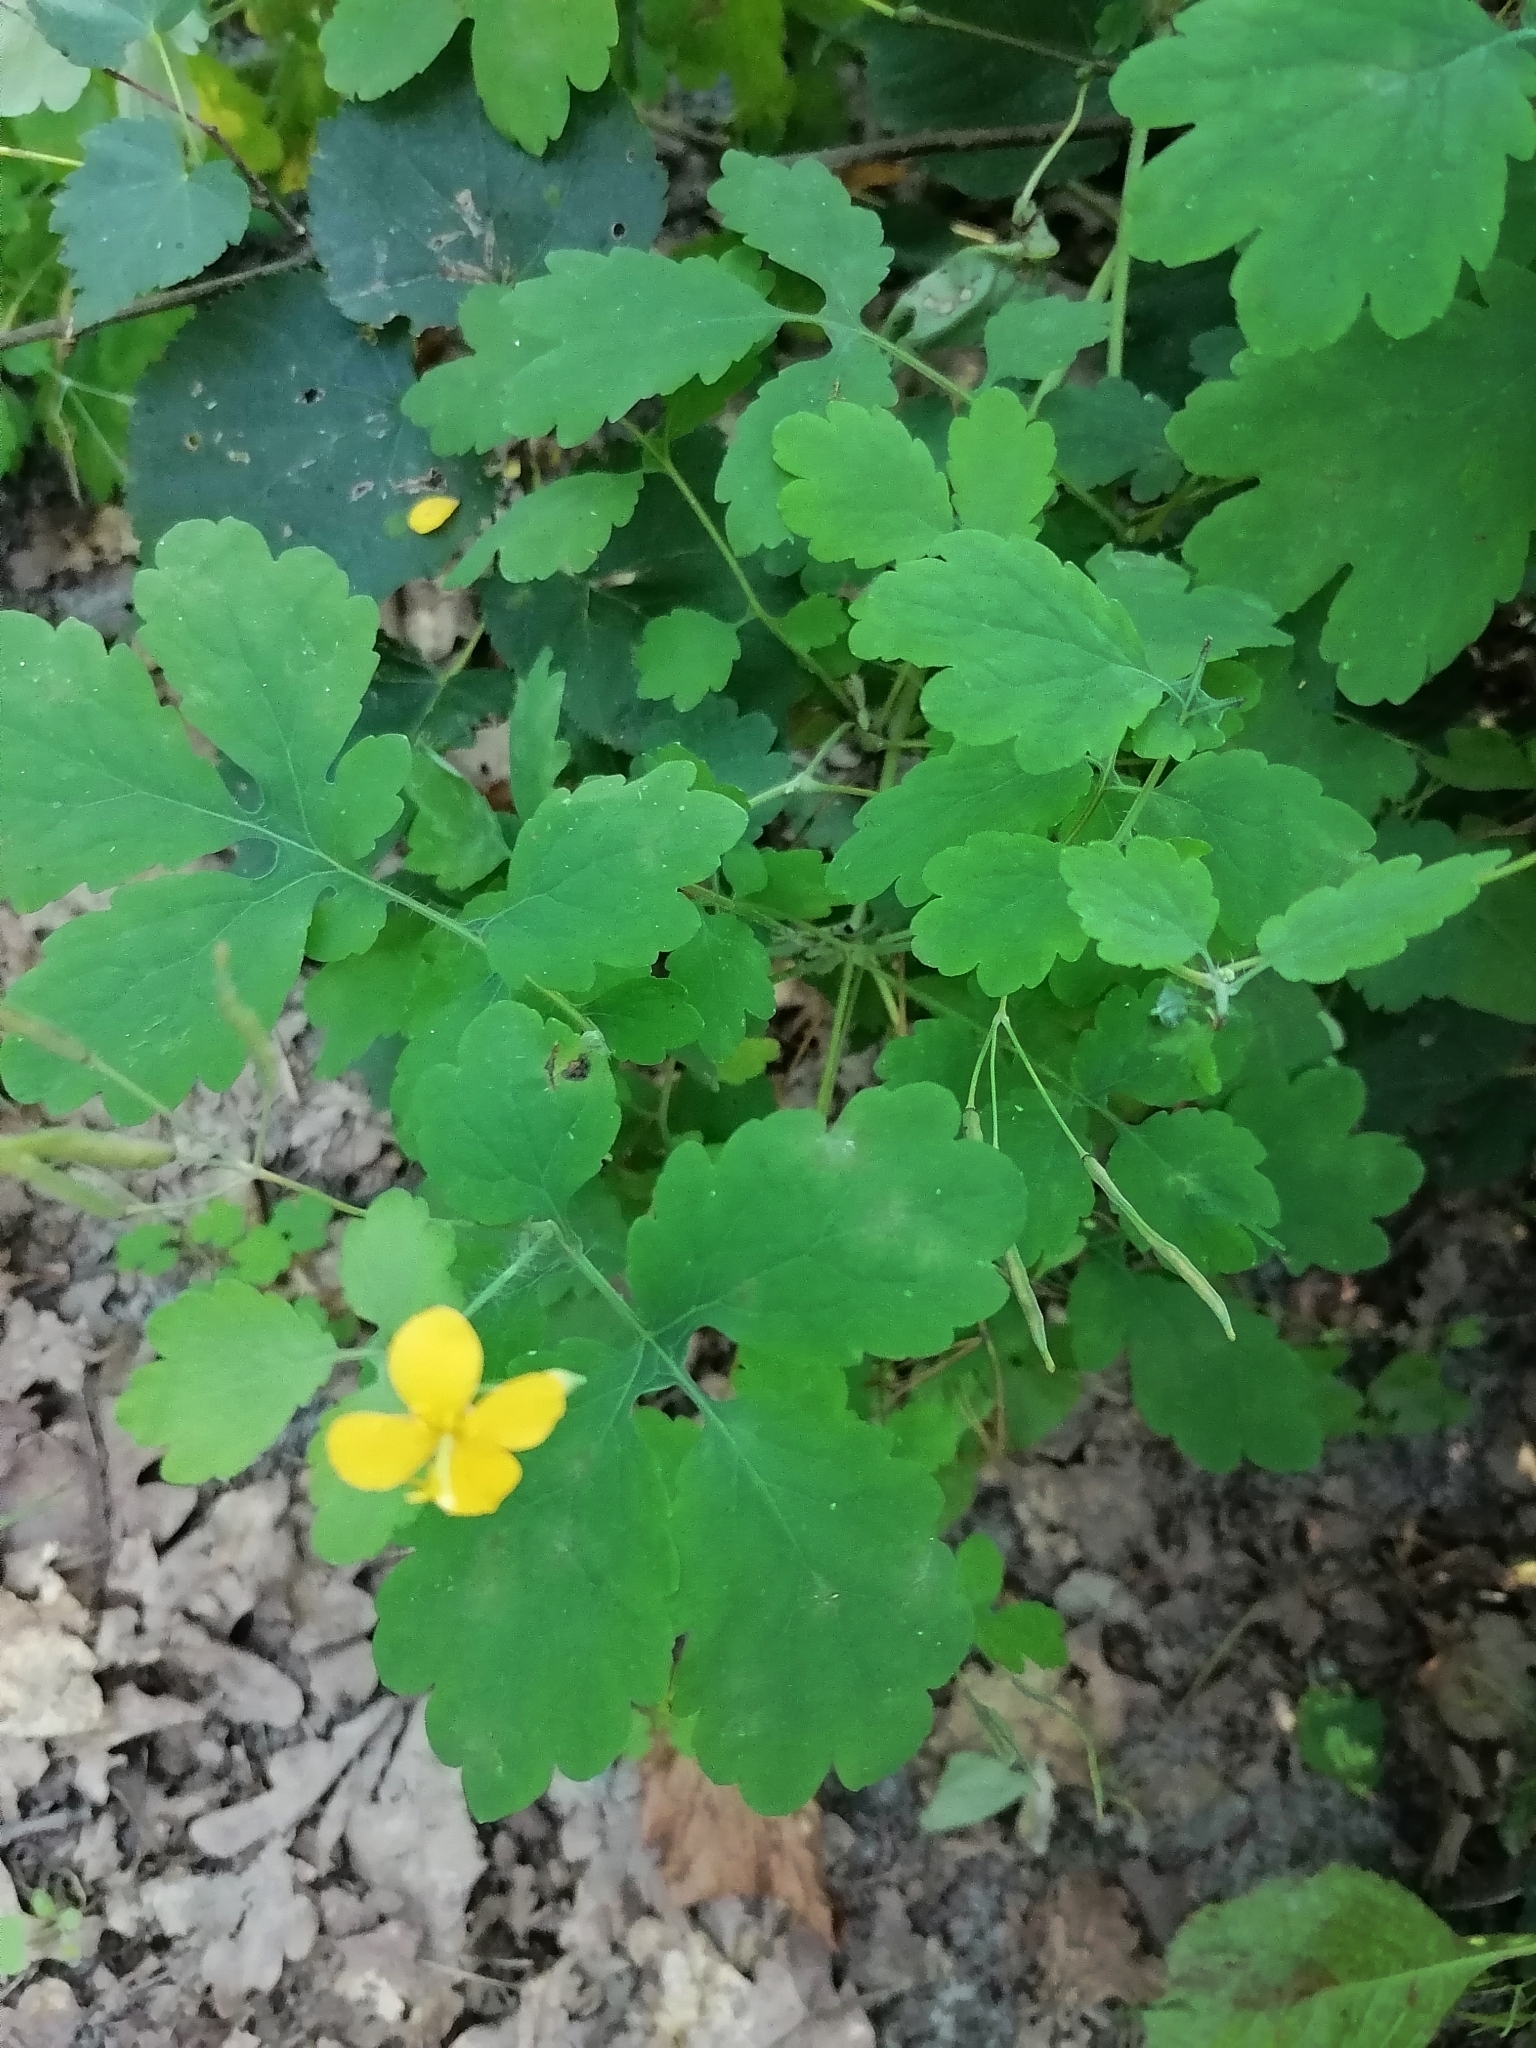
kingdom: Plantae
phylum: Tracheophyta
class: Magnoliopsida
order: Ranunculales
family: Papaveraceae
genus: Chelidonium
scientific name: Chelidonium majus
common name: Greater celandine
